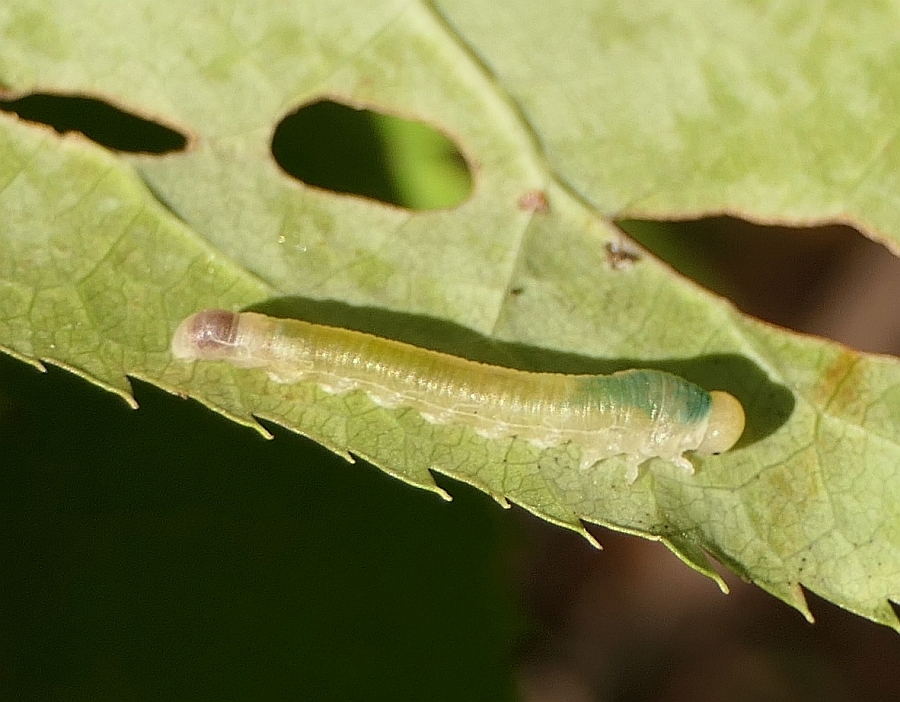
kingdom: Animalia
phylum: Arthropoda
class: Insecta
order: Hymenoptera
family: Tenthredinidae
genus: Dineura
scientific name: Dineura militaris
